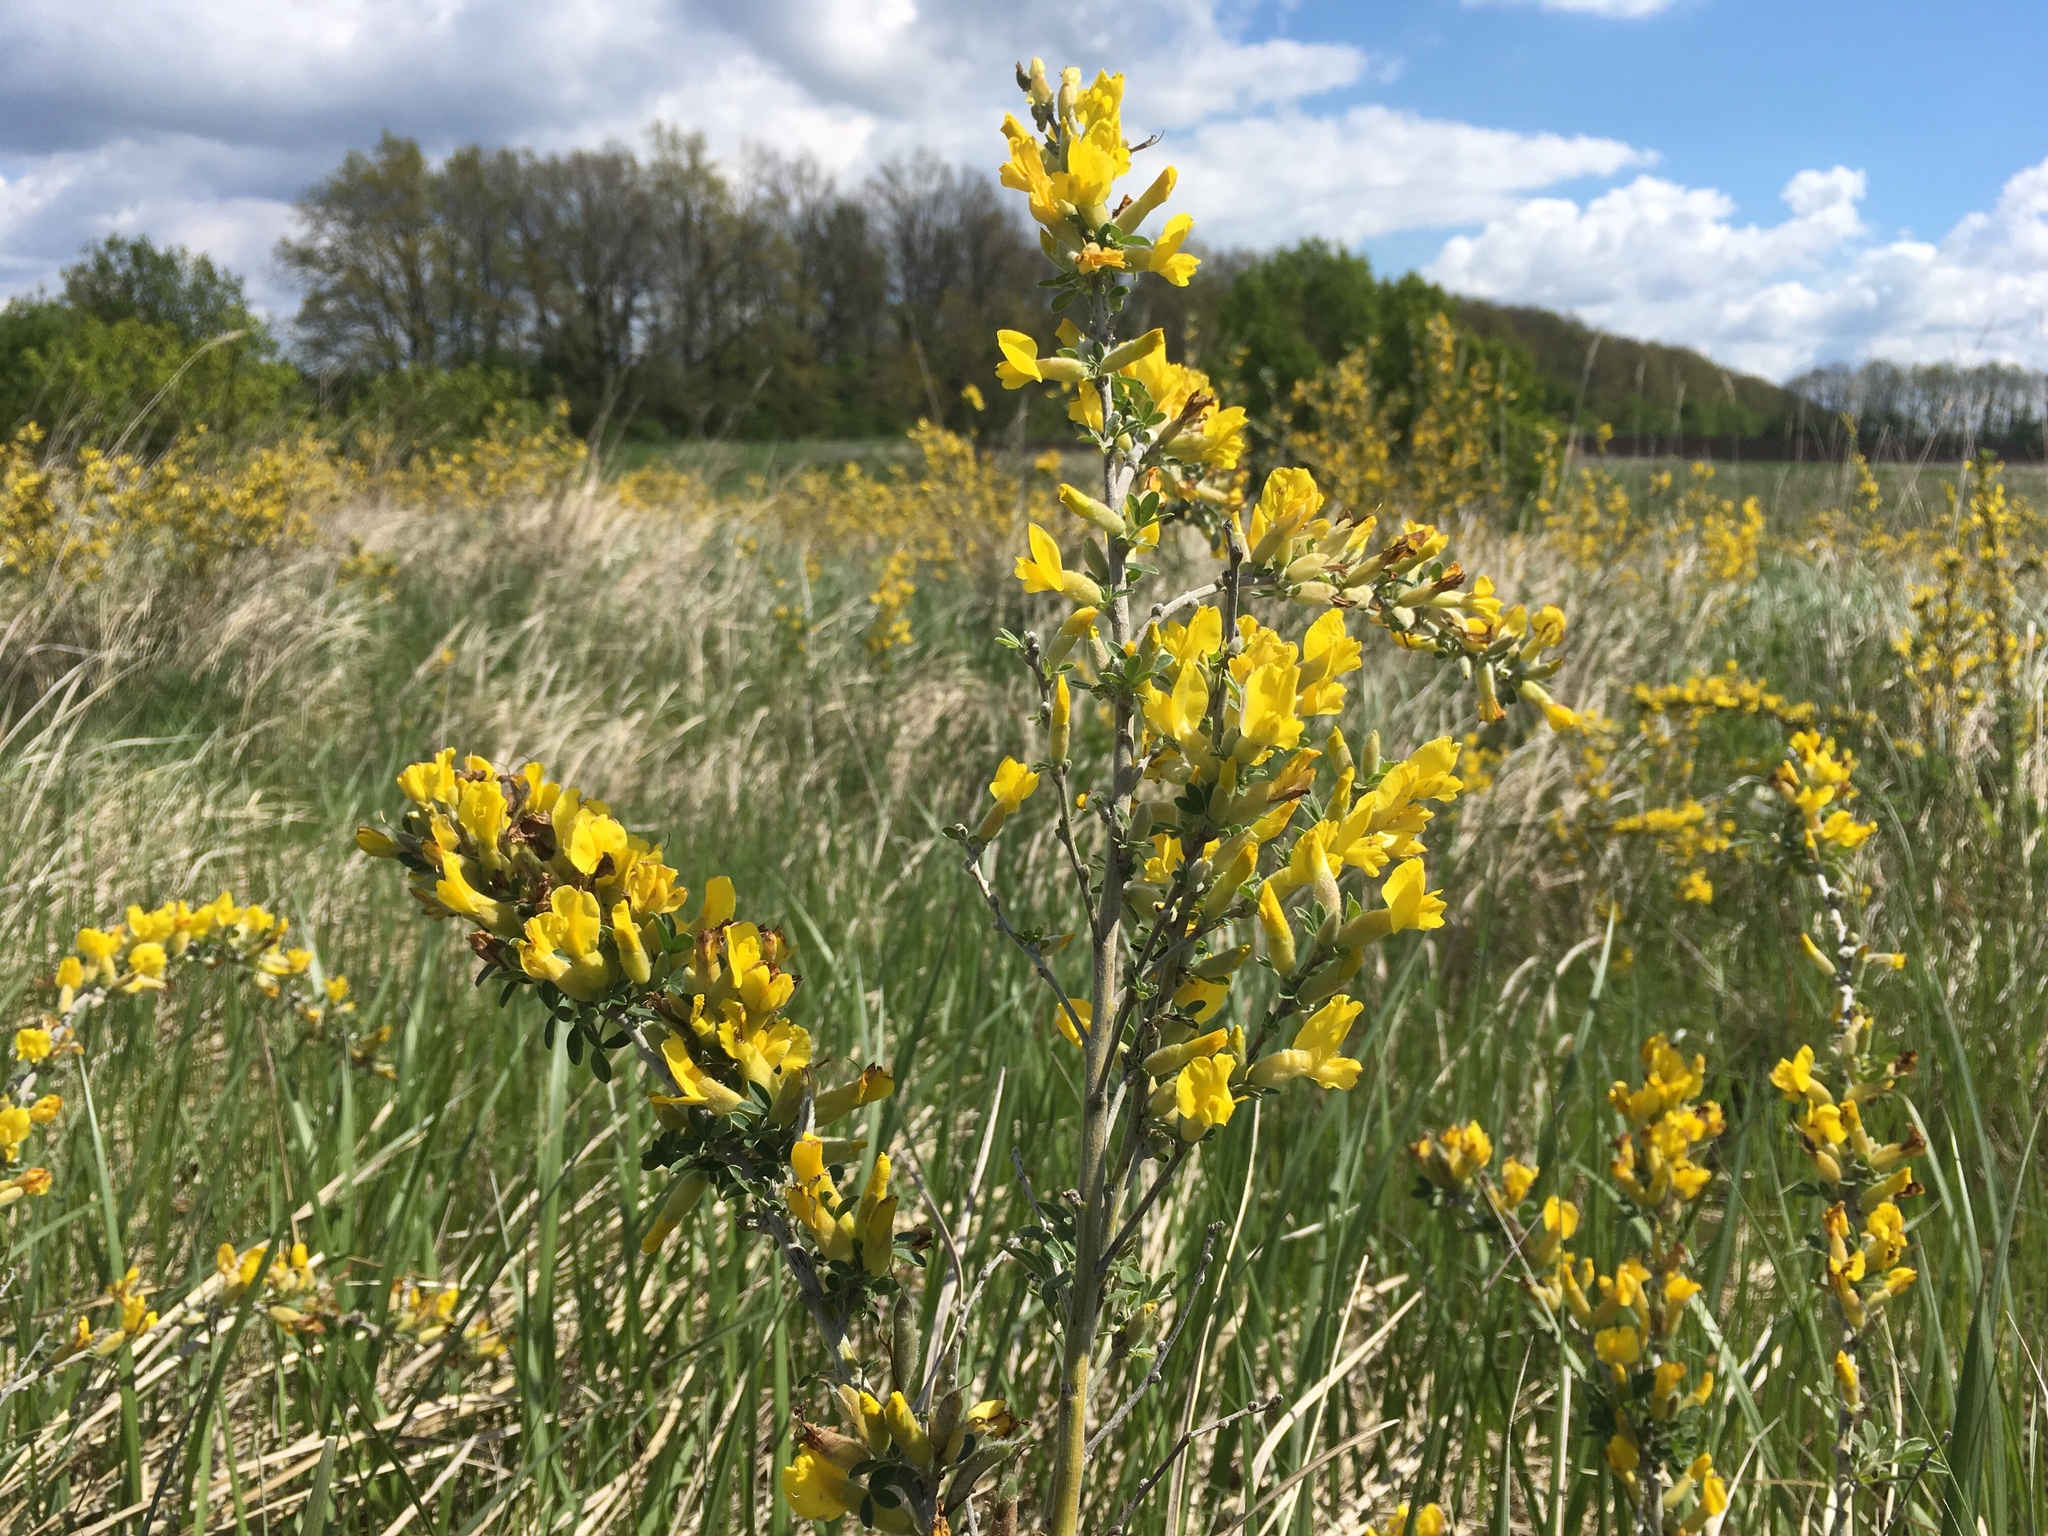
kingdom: Plantae
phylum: Tracheophyta
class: Magnoliopsida
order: Fabales
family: Fabaceae
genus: Chamaecytisus
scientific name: Chamaecytisus ruthenicus
